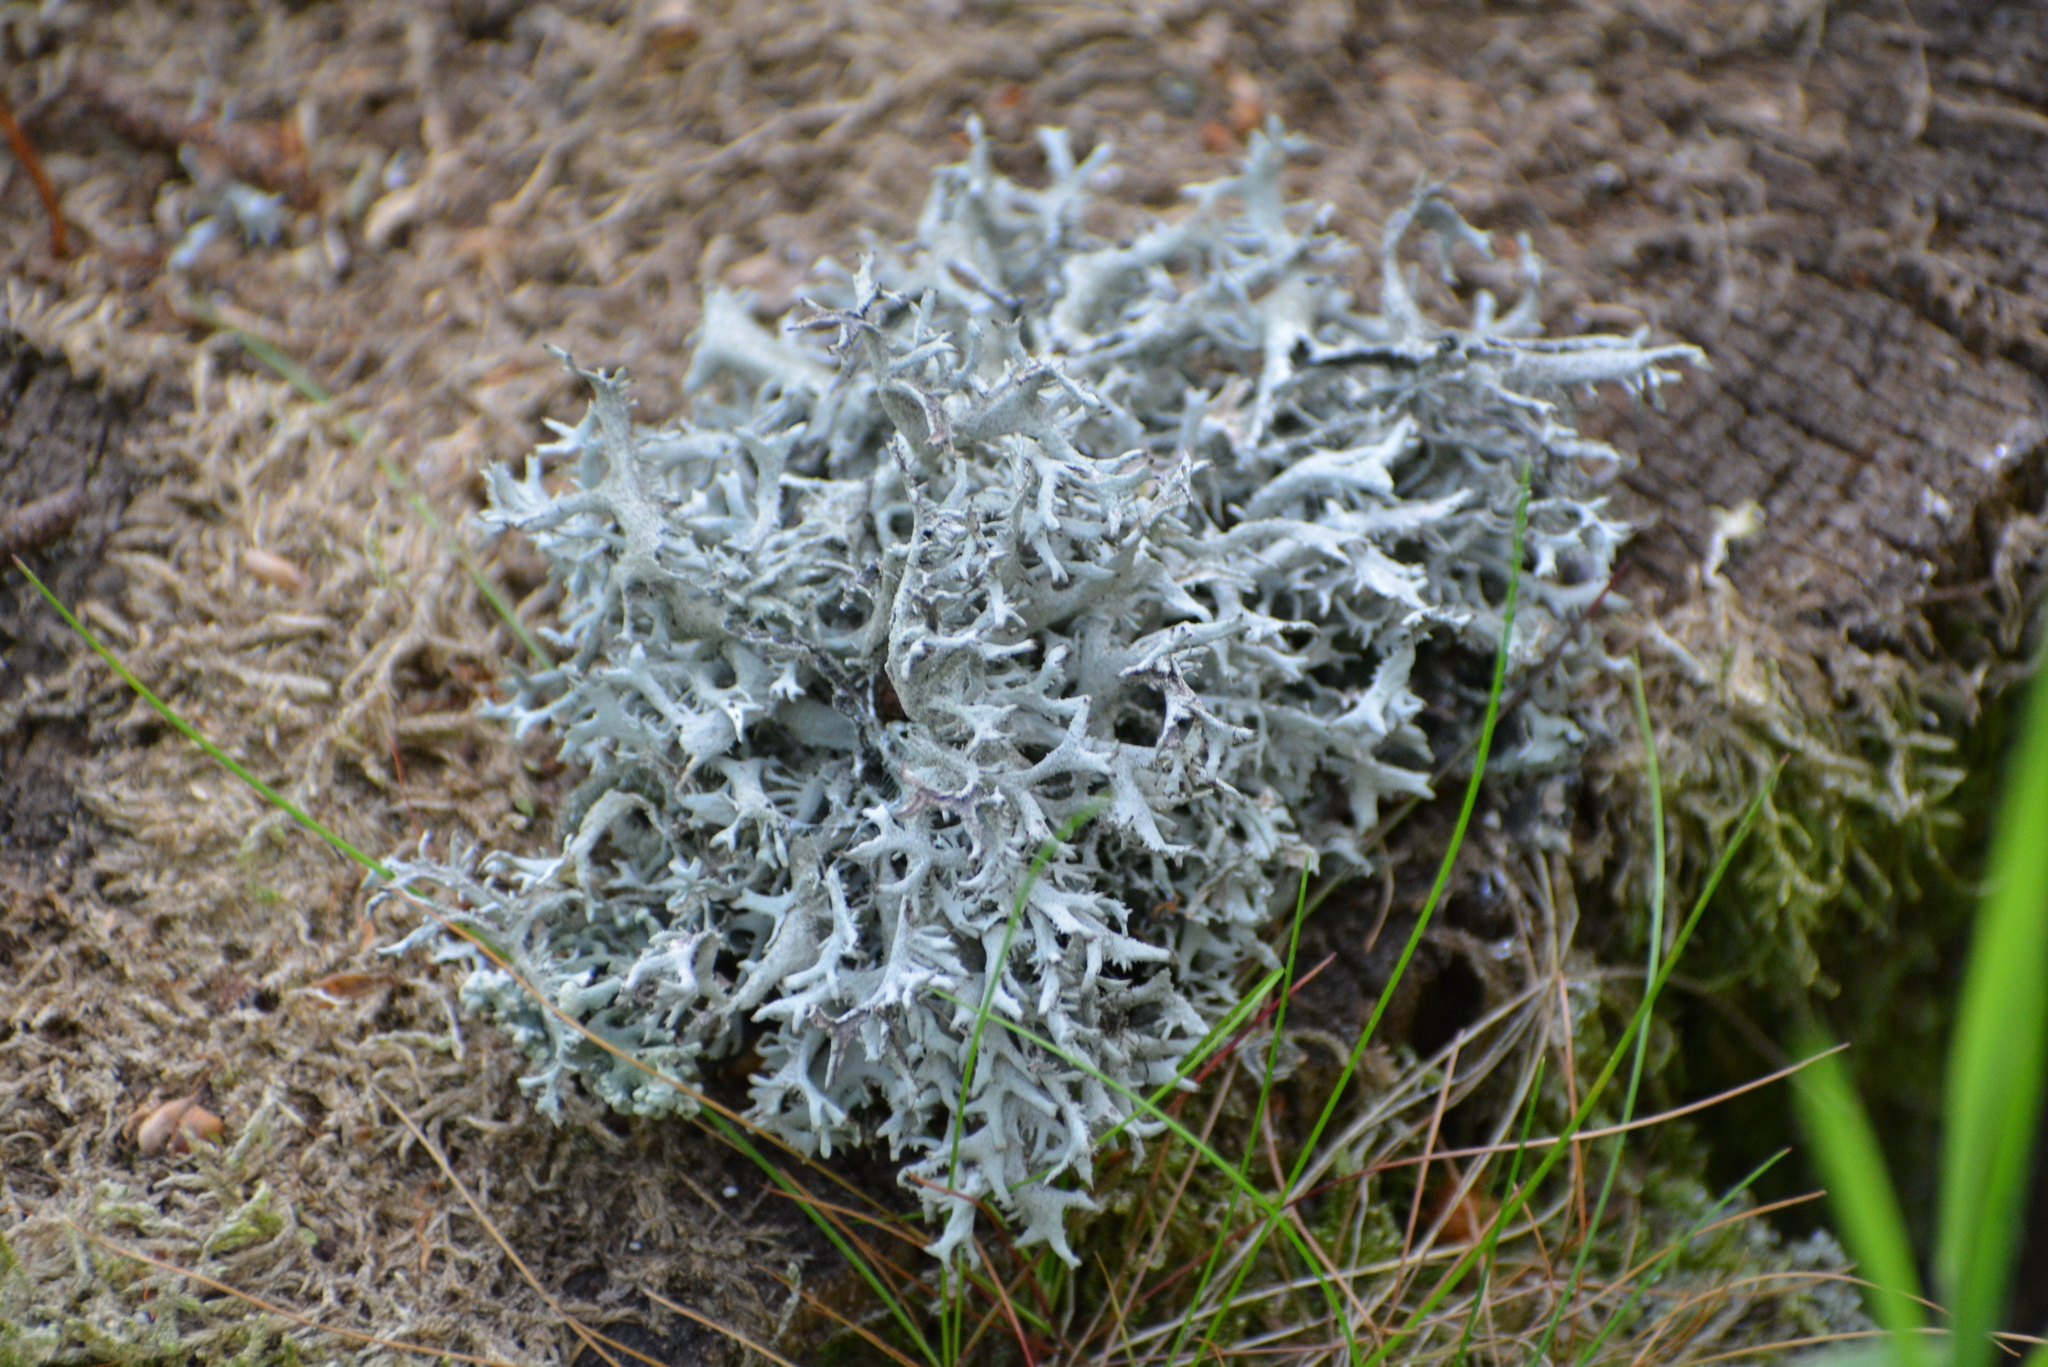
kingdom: Fungi
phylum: Ascomycota
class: Lecanoromycetes
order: Lecanorales
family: Parmeliaceae
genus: Pseudevernia
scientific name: Pseudevernia furfuracea
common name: Tree moss
